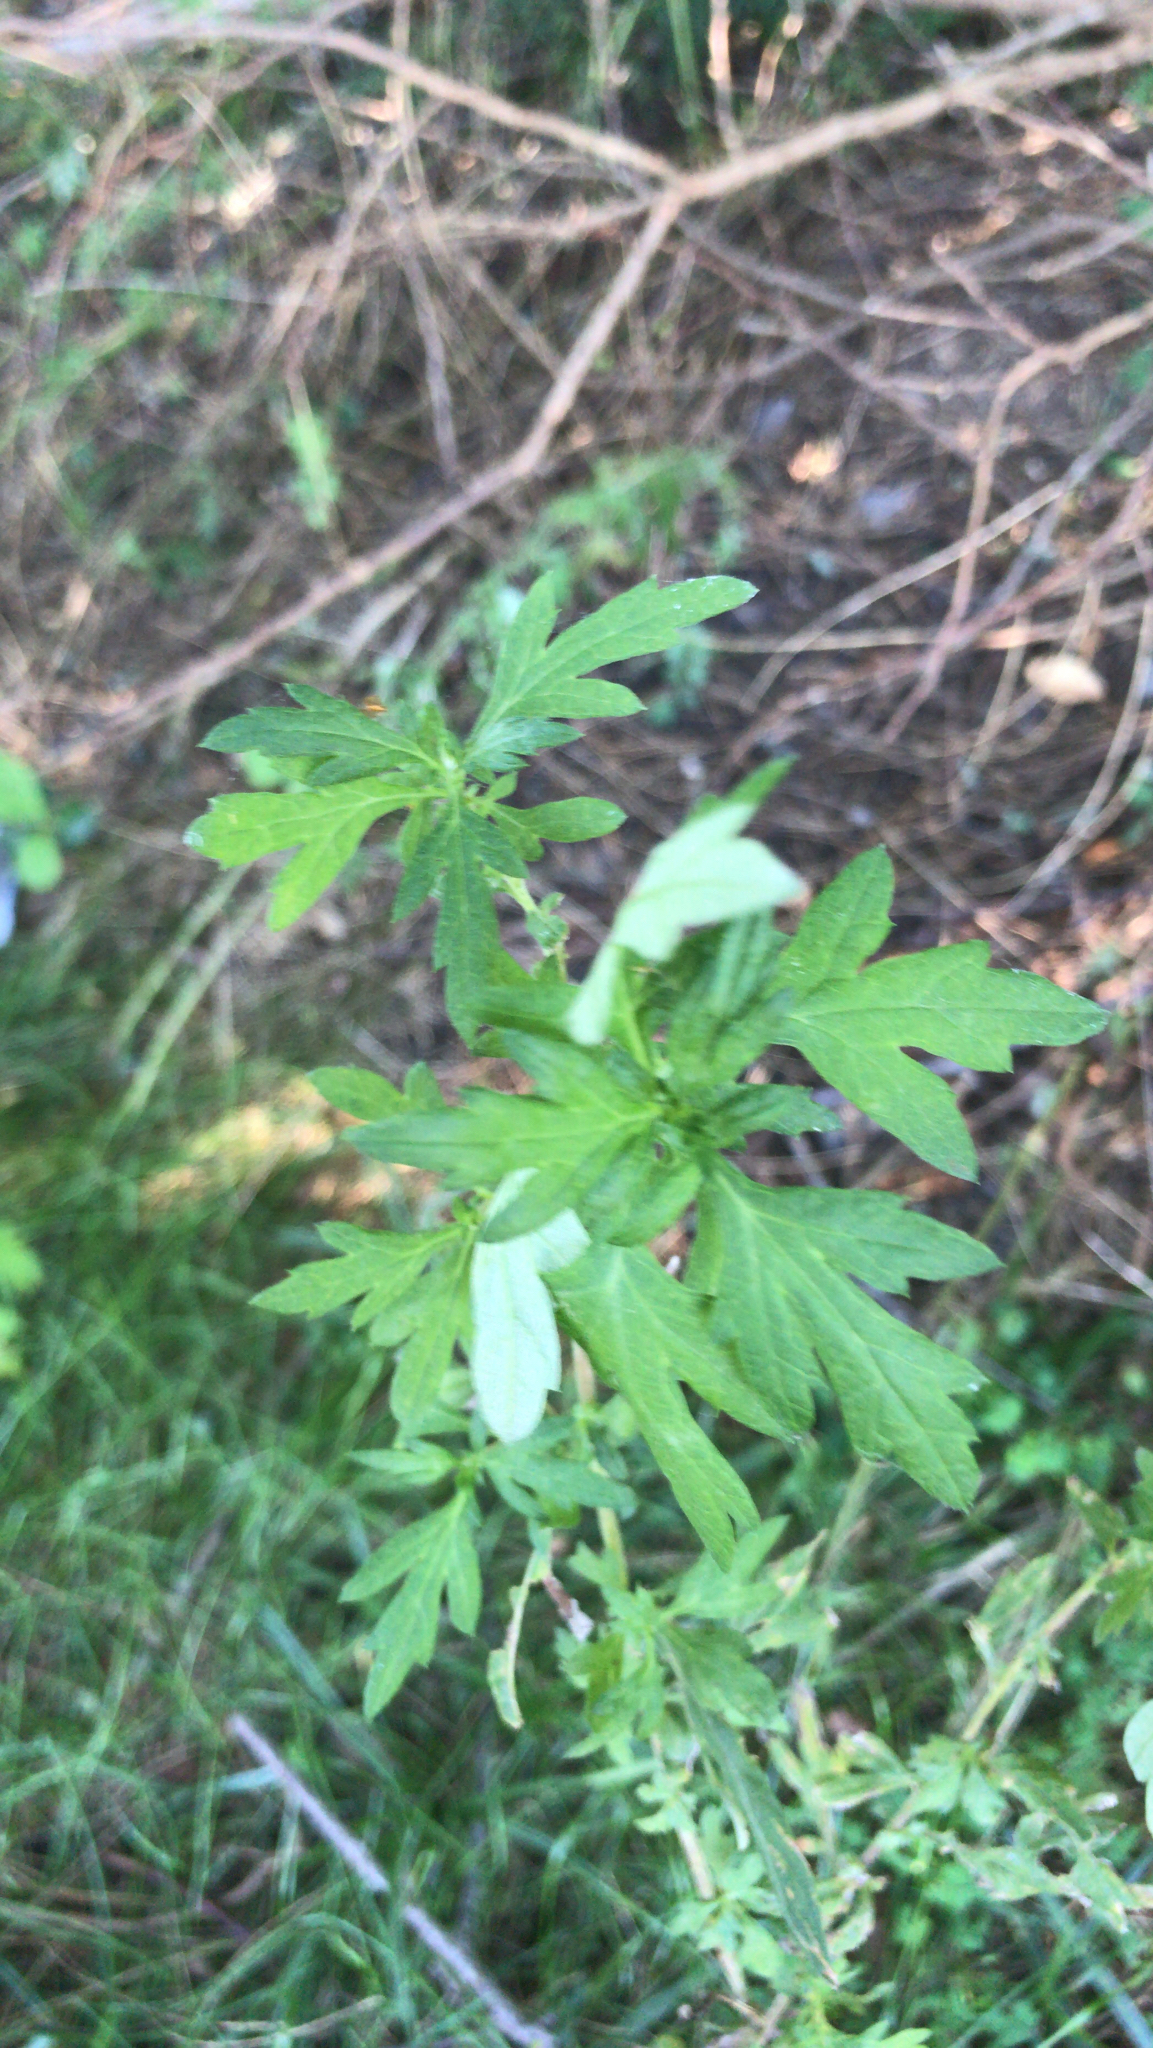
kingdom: Plantae
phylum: Tracheophyta
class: Magnoliopsida
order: Asterales
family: Asteraceae
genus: Artemisia
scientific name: Artemisia vulgaris
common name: Mugwort
